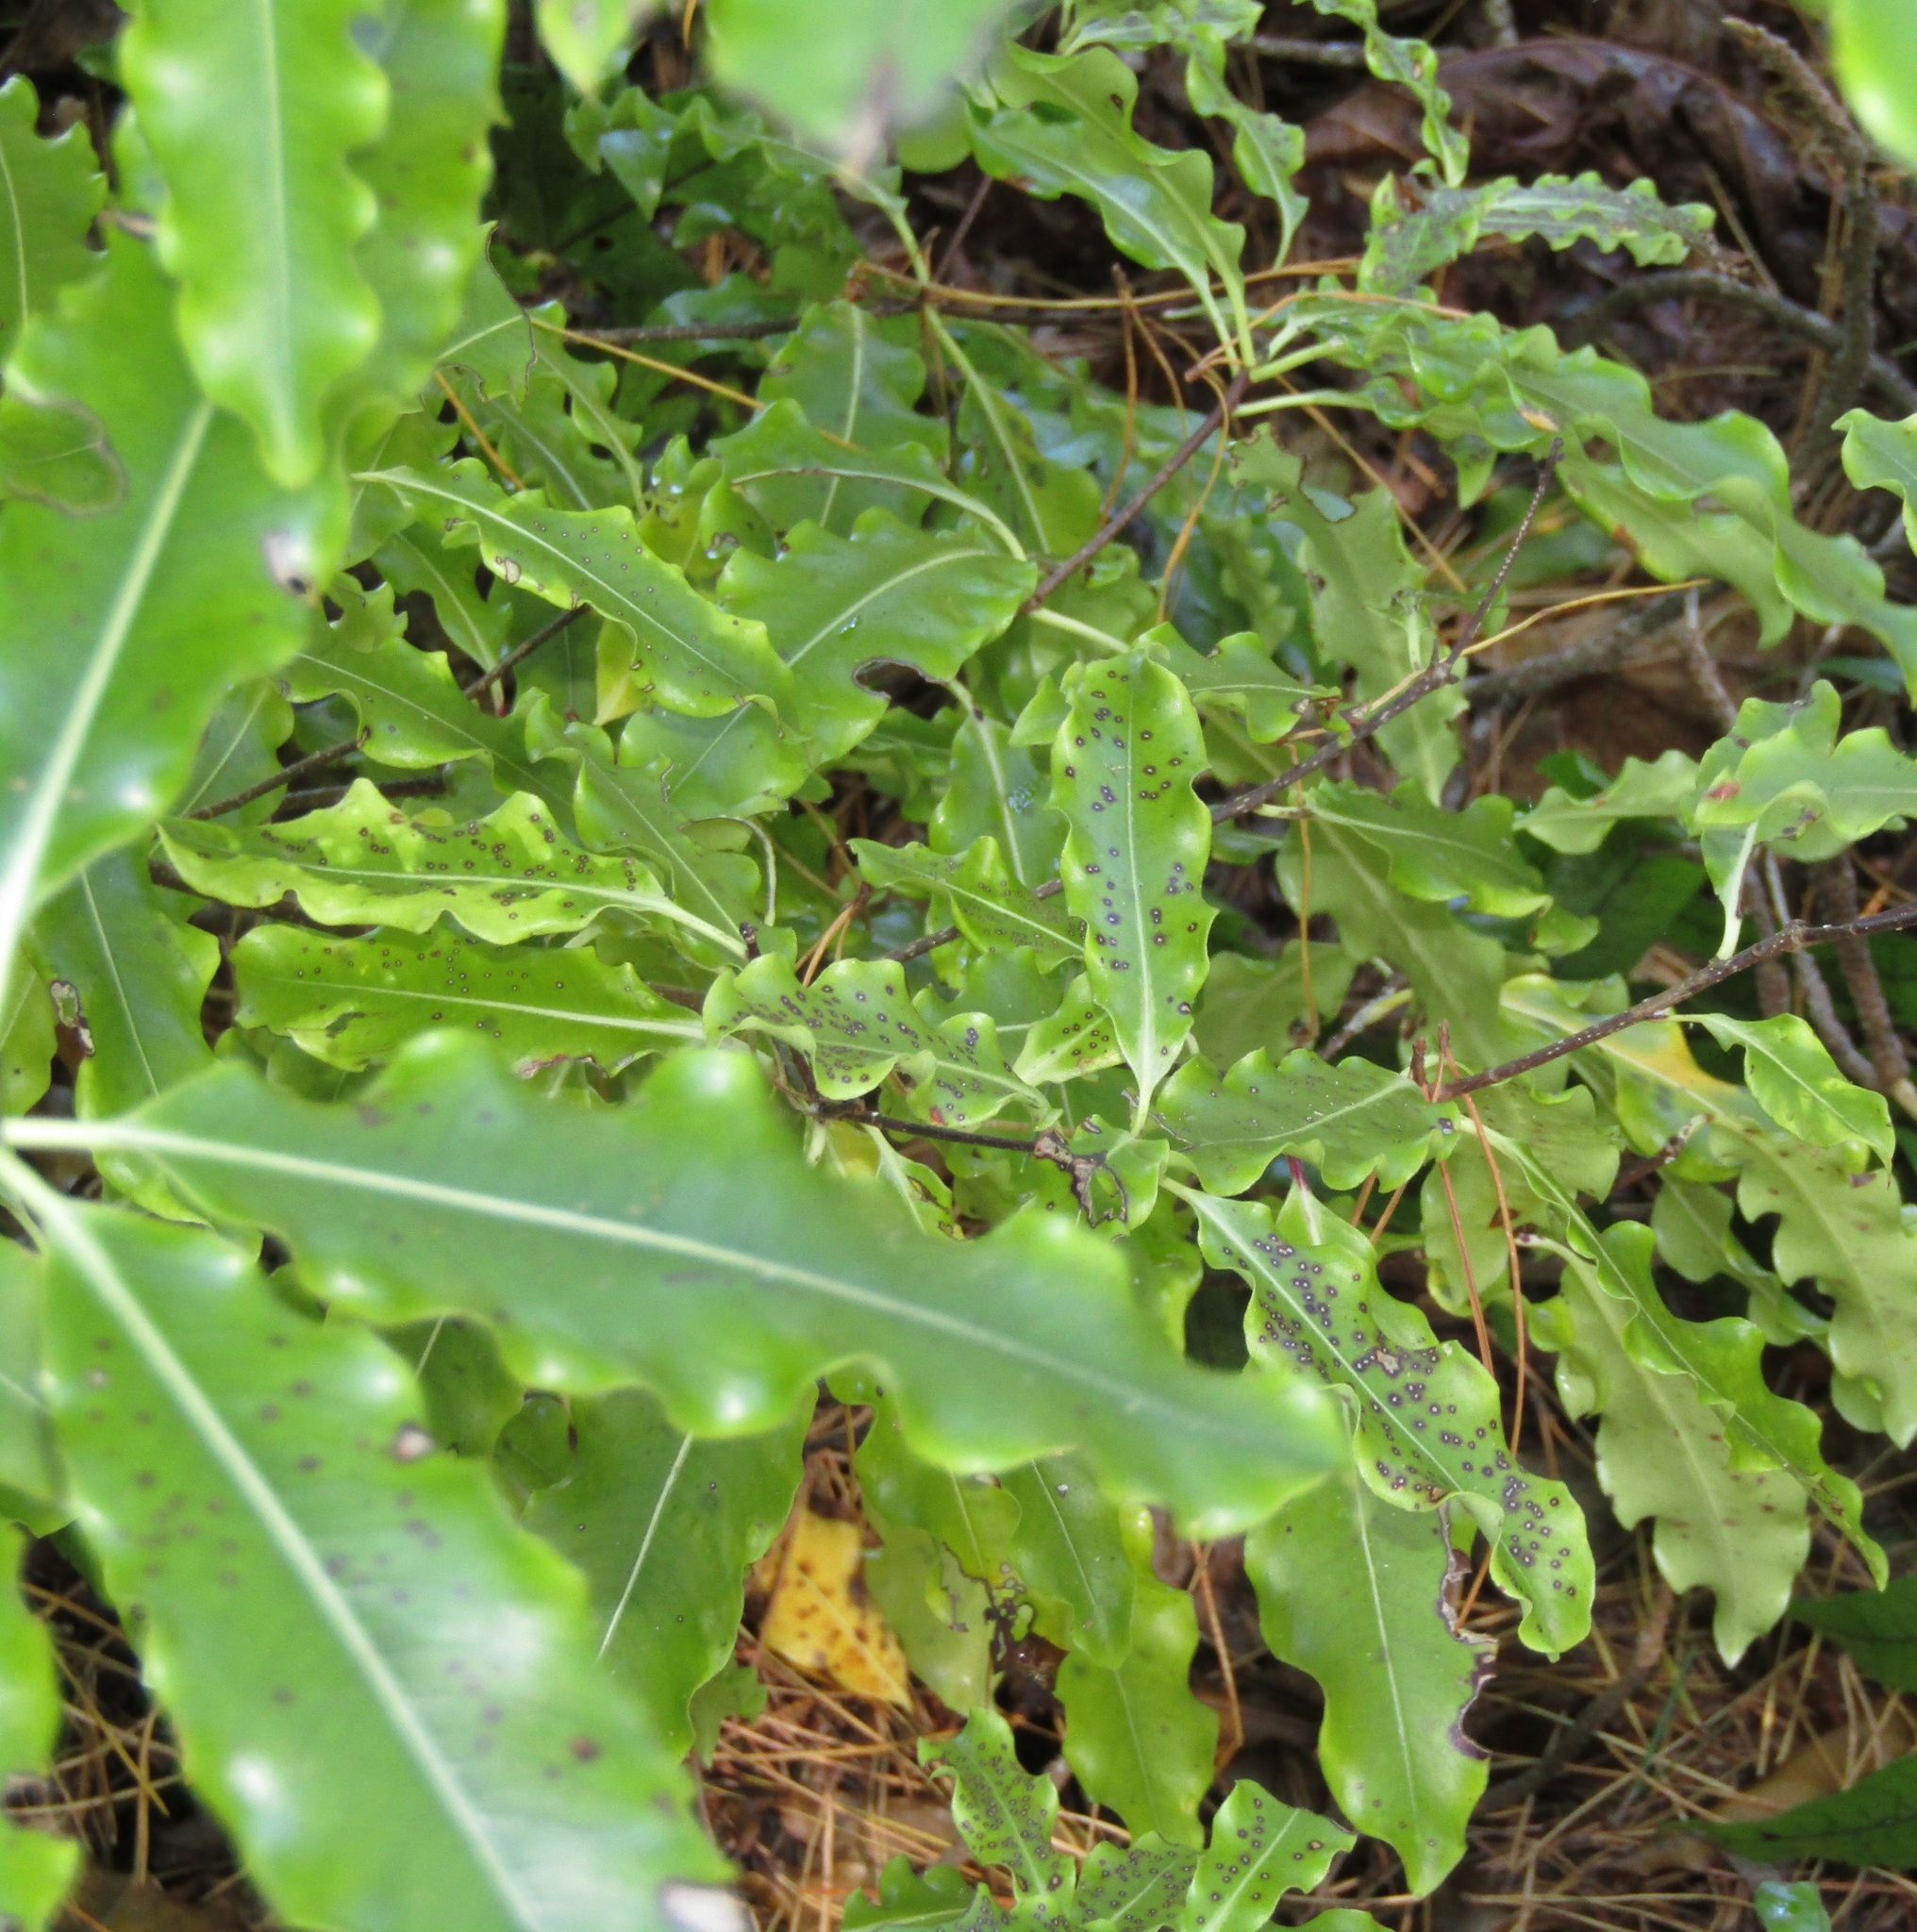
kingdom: Plantae
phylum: Tracheophyta
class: Magnoliopsida
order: Apiales
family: Pittosporaceae
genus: Pittosporum
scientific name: Pittosporum eugenioides
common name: Lemonwood
